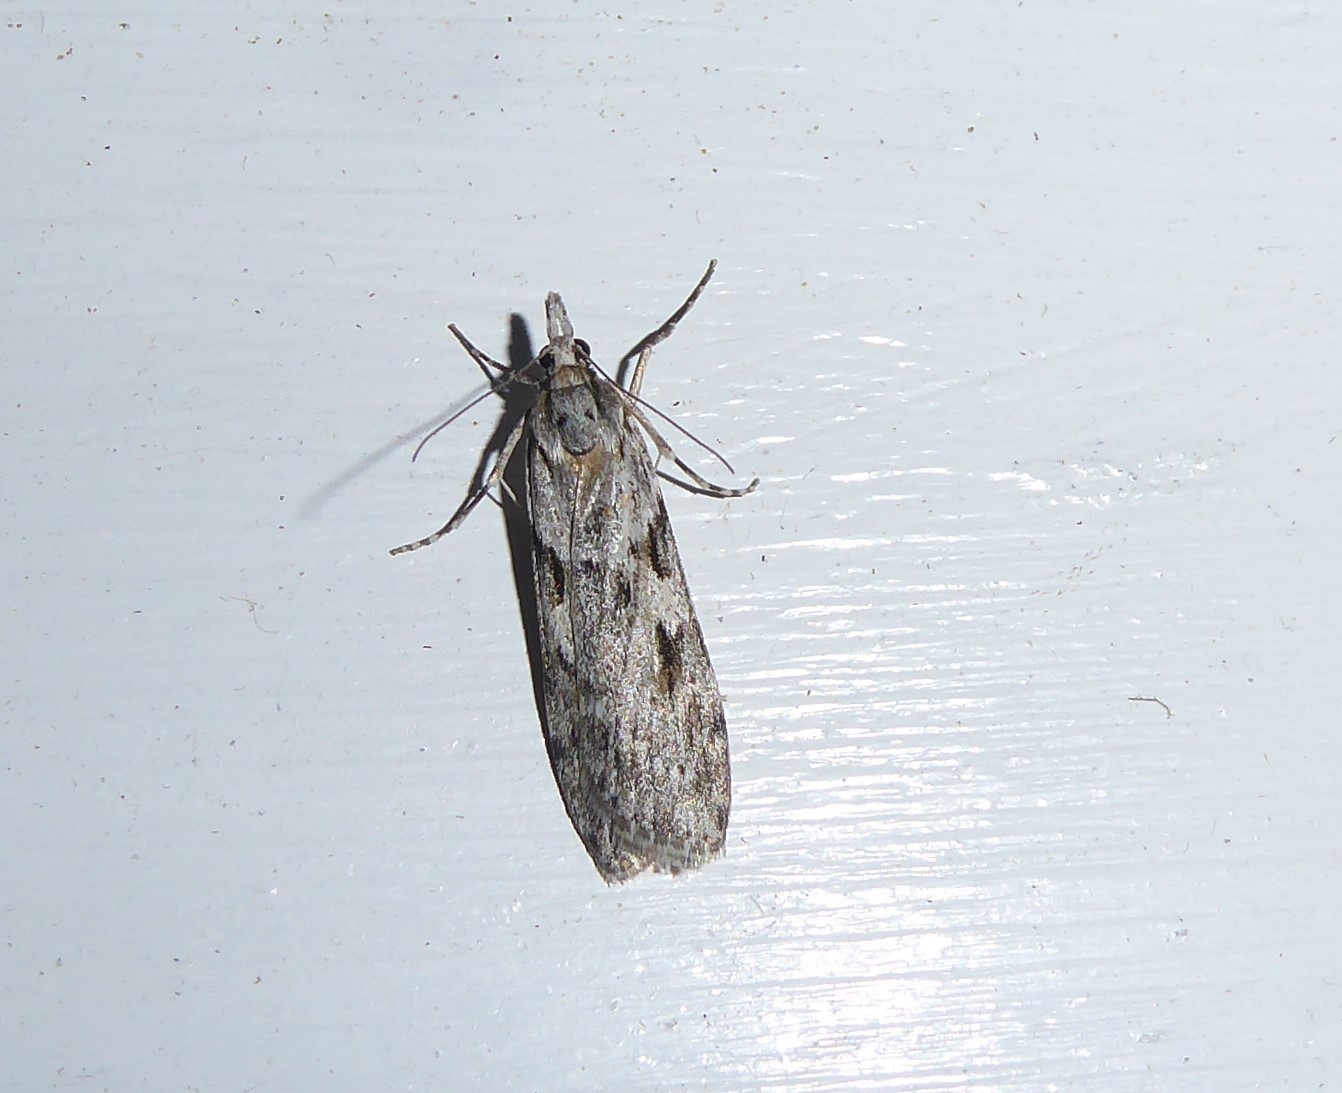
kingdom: Animalia
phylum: Arthropoda
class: Insecta
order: Lepidoptera
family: Crambidae
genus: Scoparia
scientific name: Scoparia halopis
